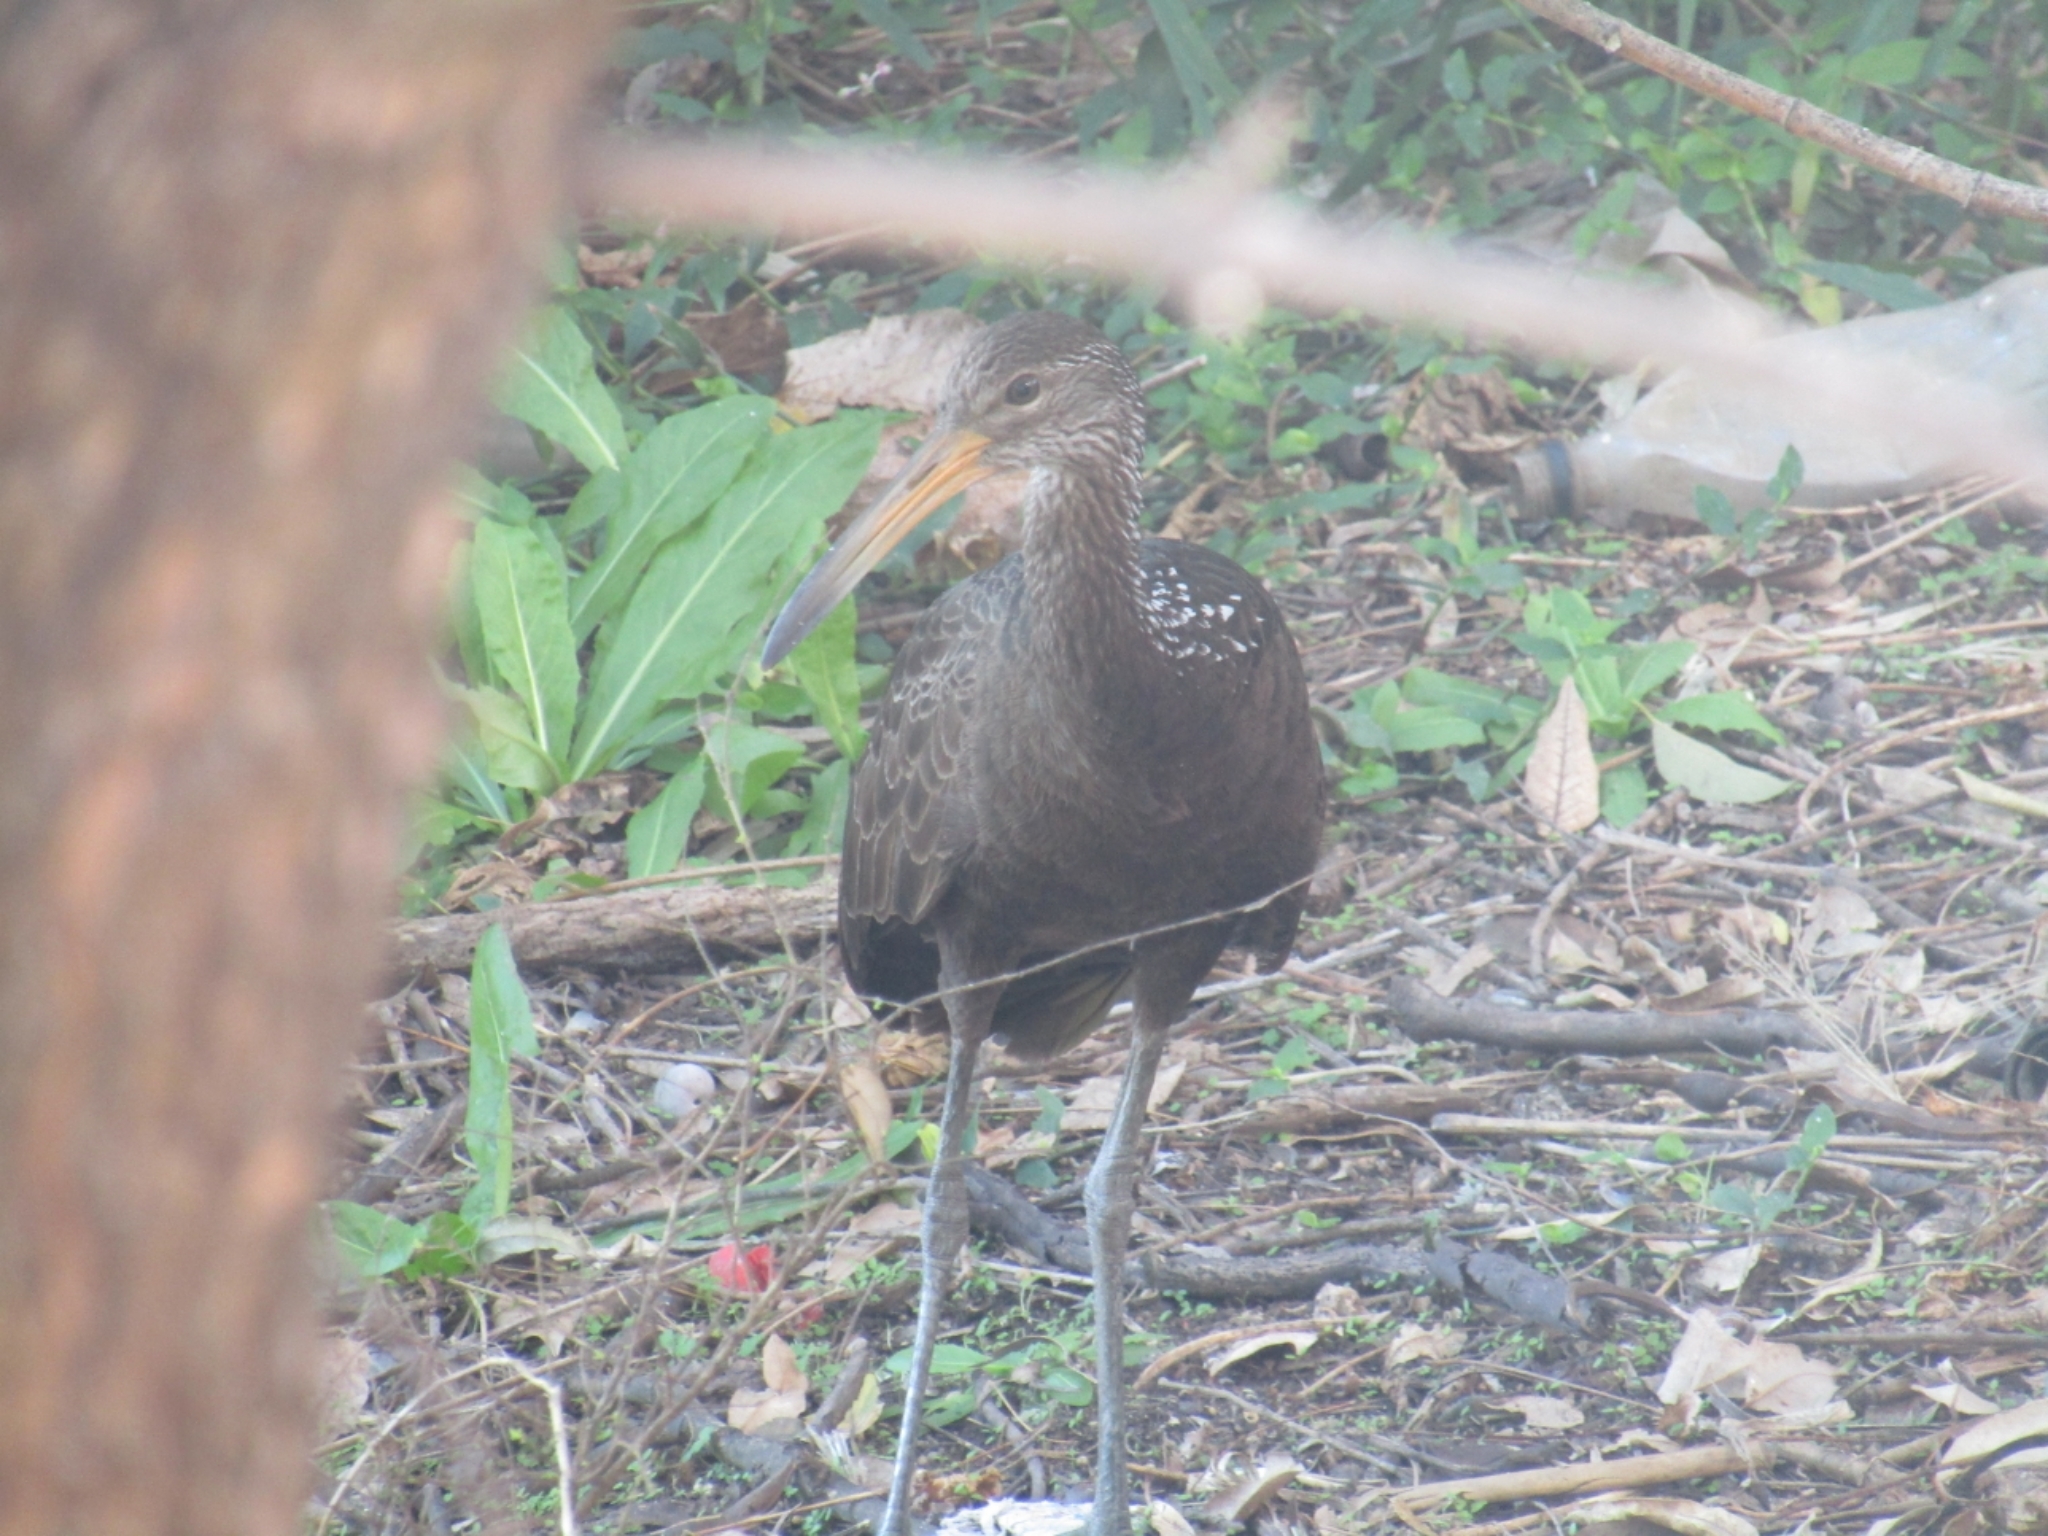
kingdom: Animalia
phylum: Chordata
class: Aves
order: Gruiformes
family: Aramidae
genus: Aramus
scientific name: Aramus guarauna
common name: Limpkin
